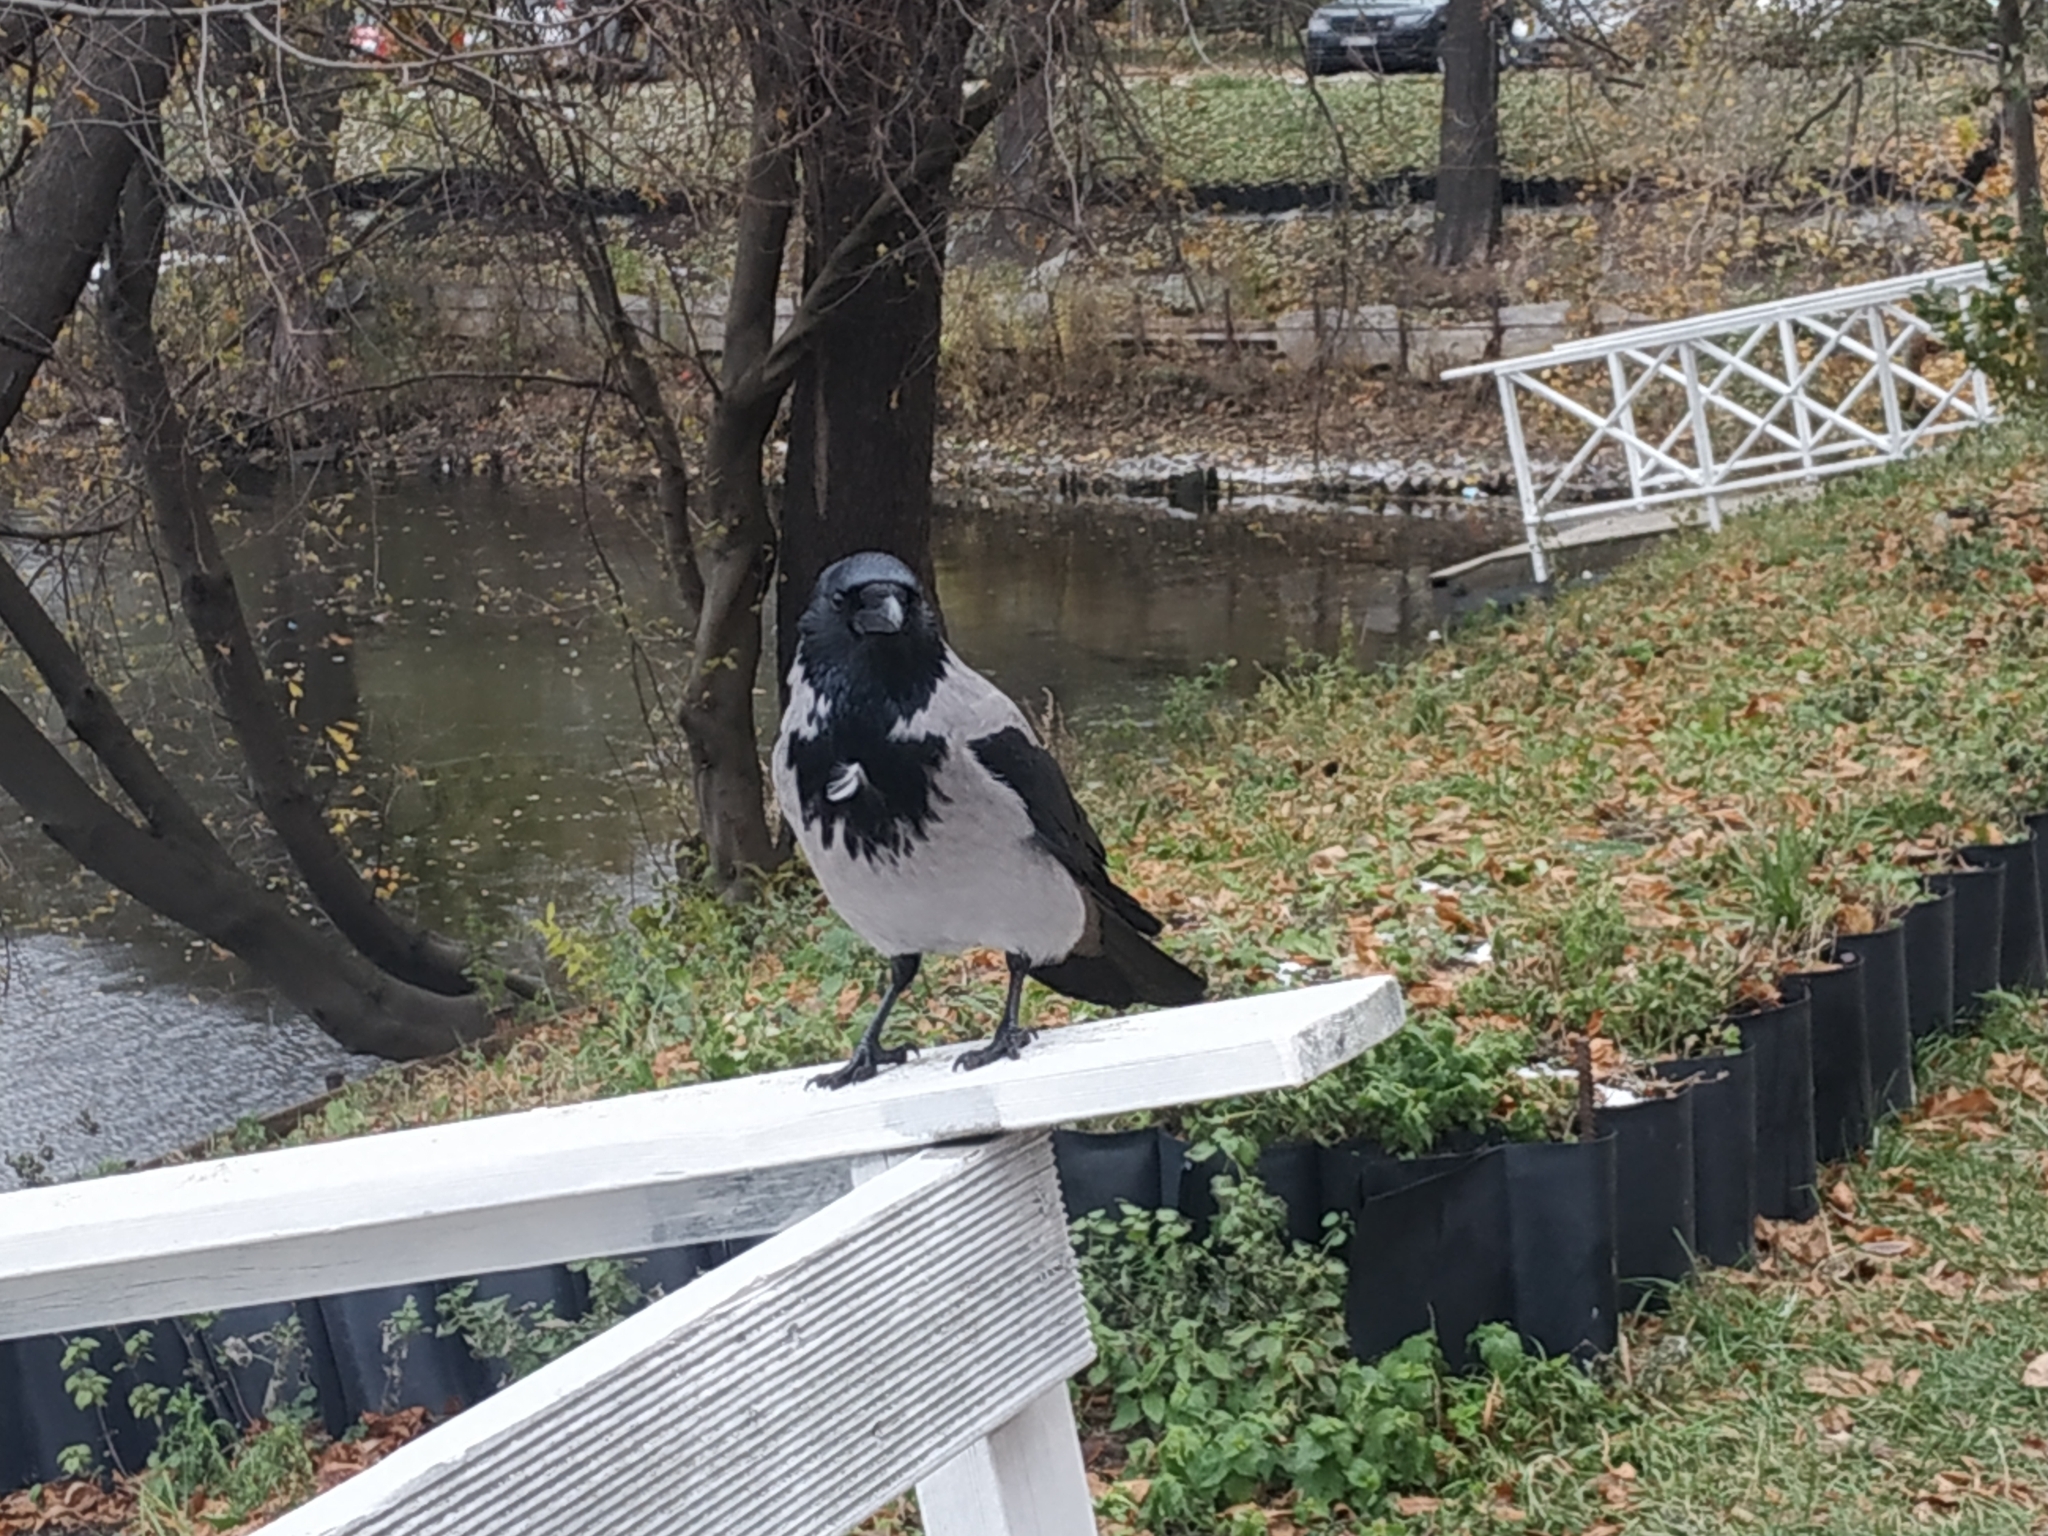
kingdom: Animalia
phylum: Chordata
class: Aves
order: Passeriformes
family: Corvidae
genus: Corvus
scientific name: Corvus cornix
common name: Hooded crow
